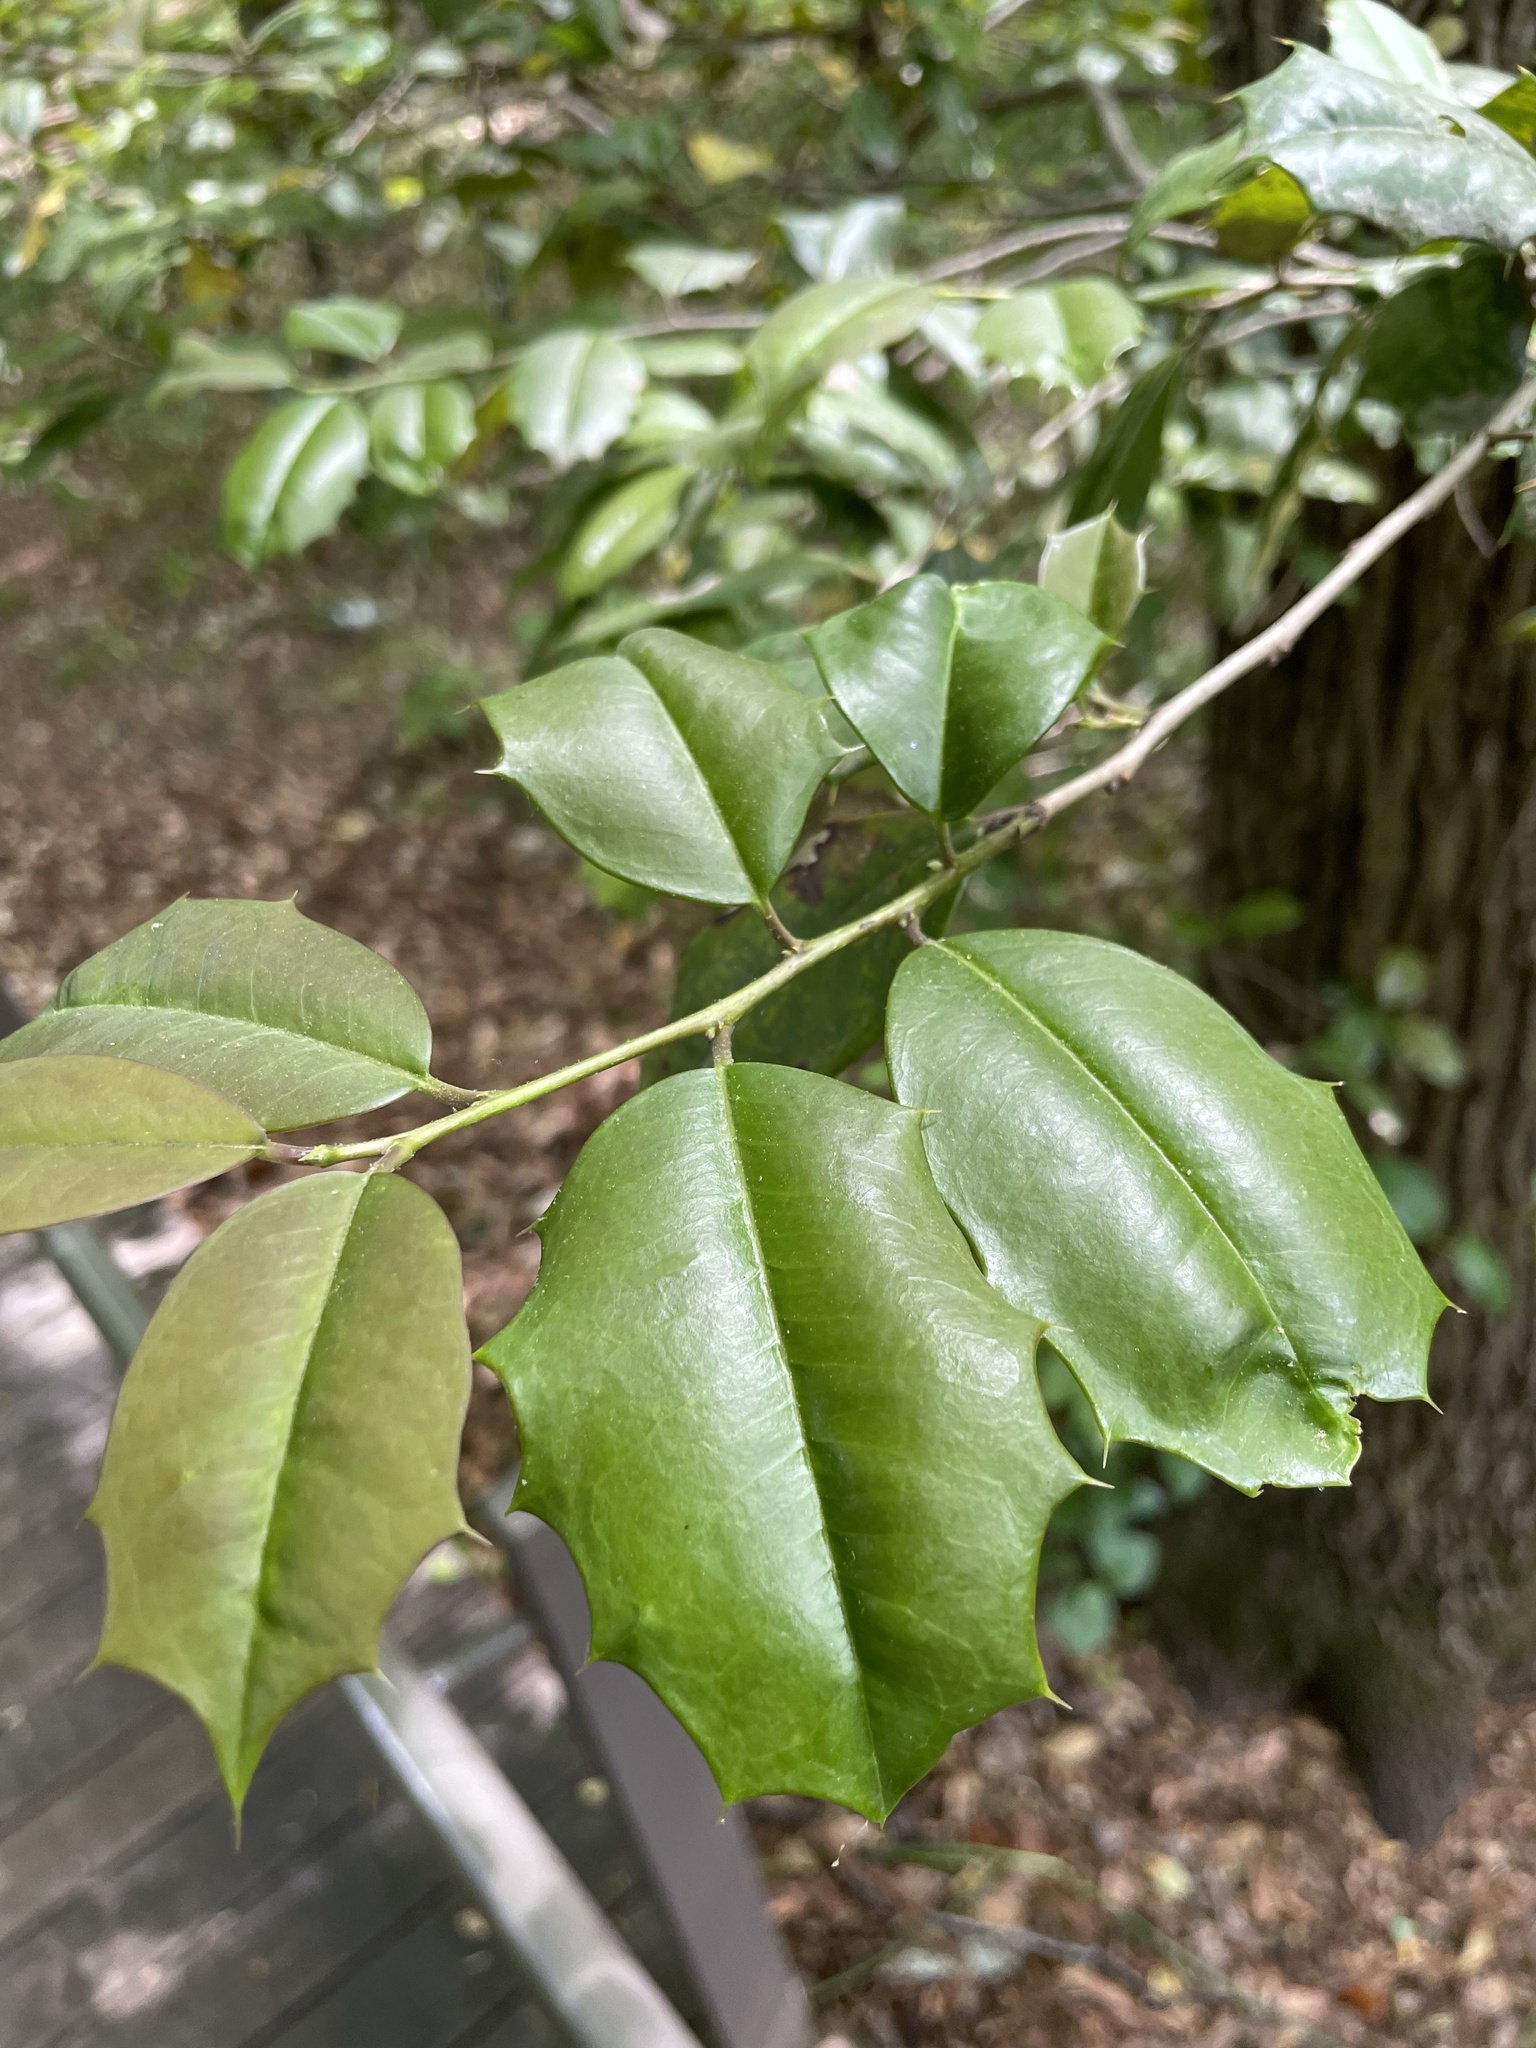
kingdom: Plantae
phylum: Tracheophyta
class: Magnoliopsida
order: Aquifoliales
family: Aquifoliaceae
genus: Ilex
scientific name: Ilex opaca
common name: American holly
